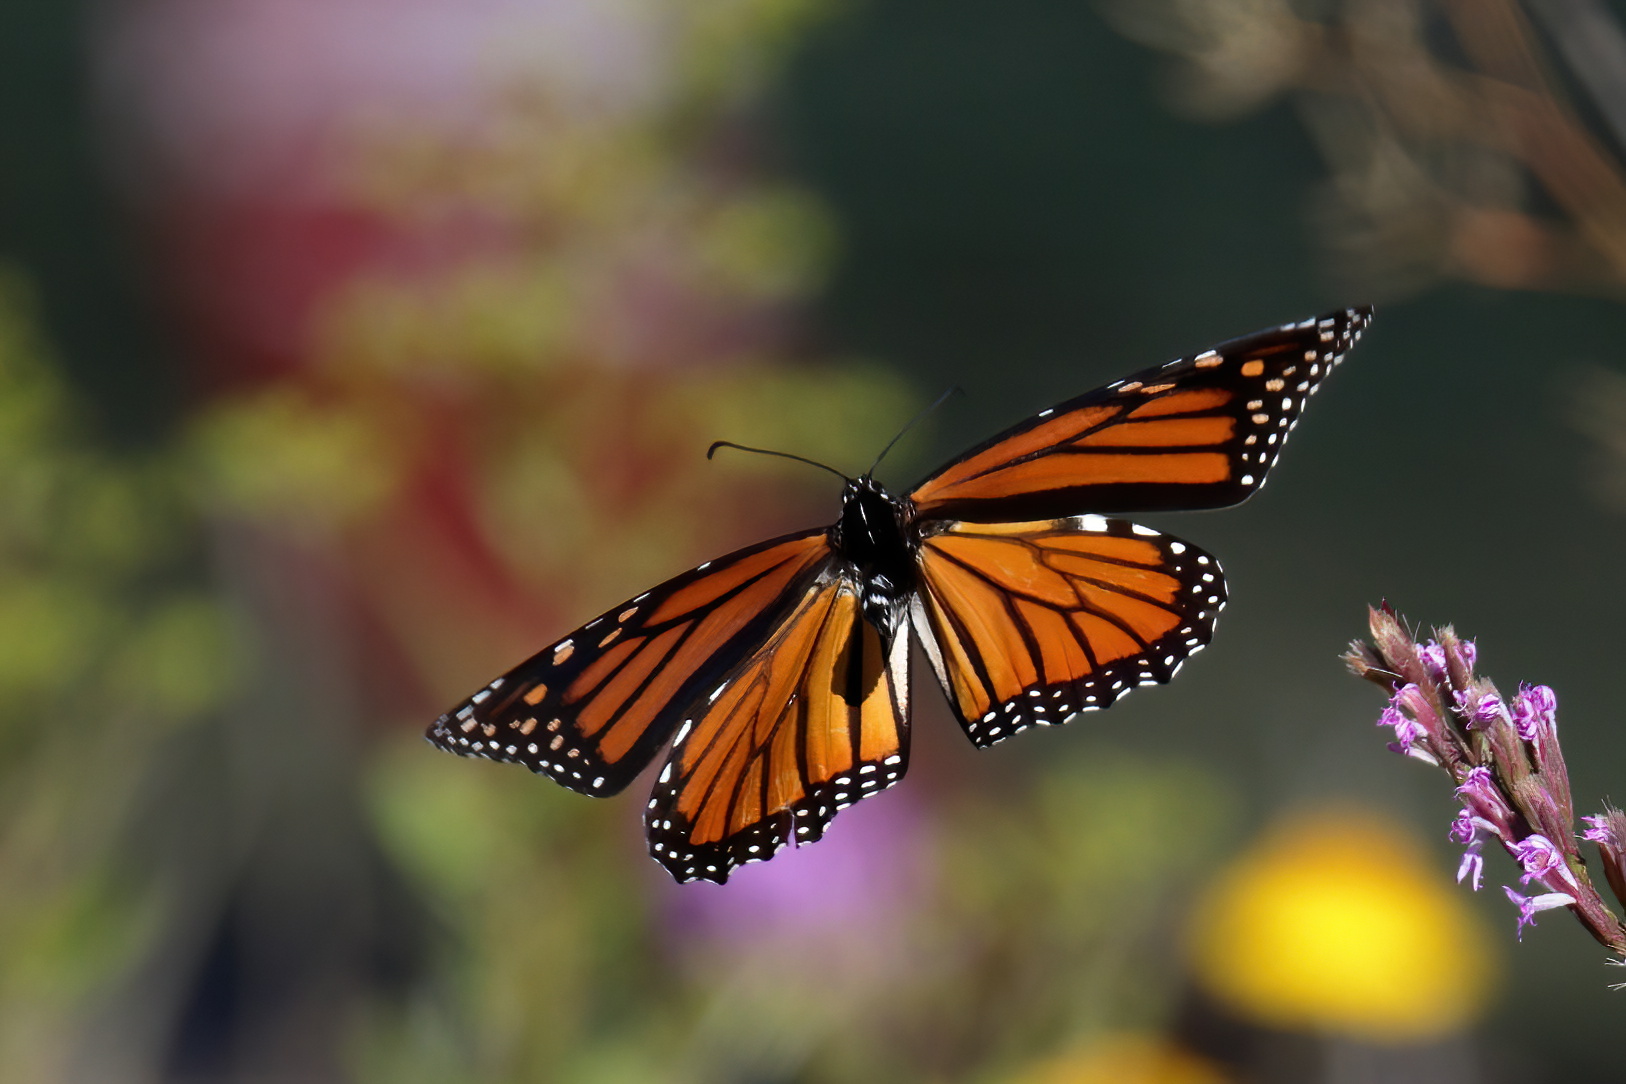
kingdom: Animalia
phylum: Arthropoda
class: Insecta
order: Lepidoptera
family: Nymphalidae
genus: Danaus
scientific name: Danaus plexippus
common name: Monarch
